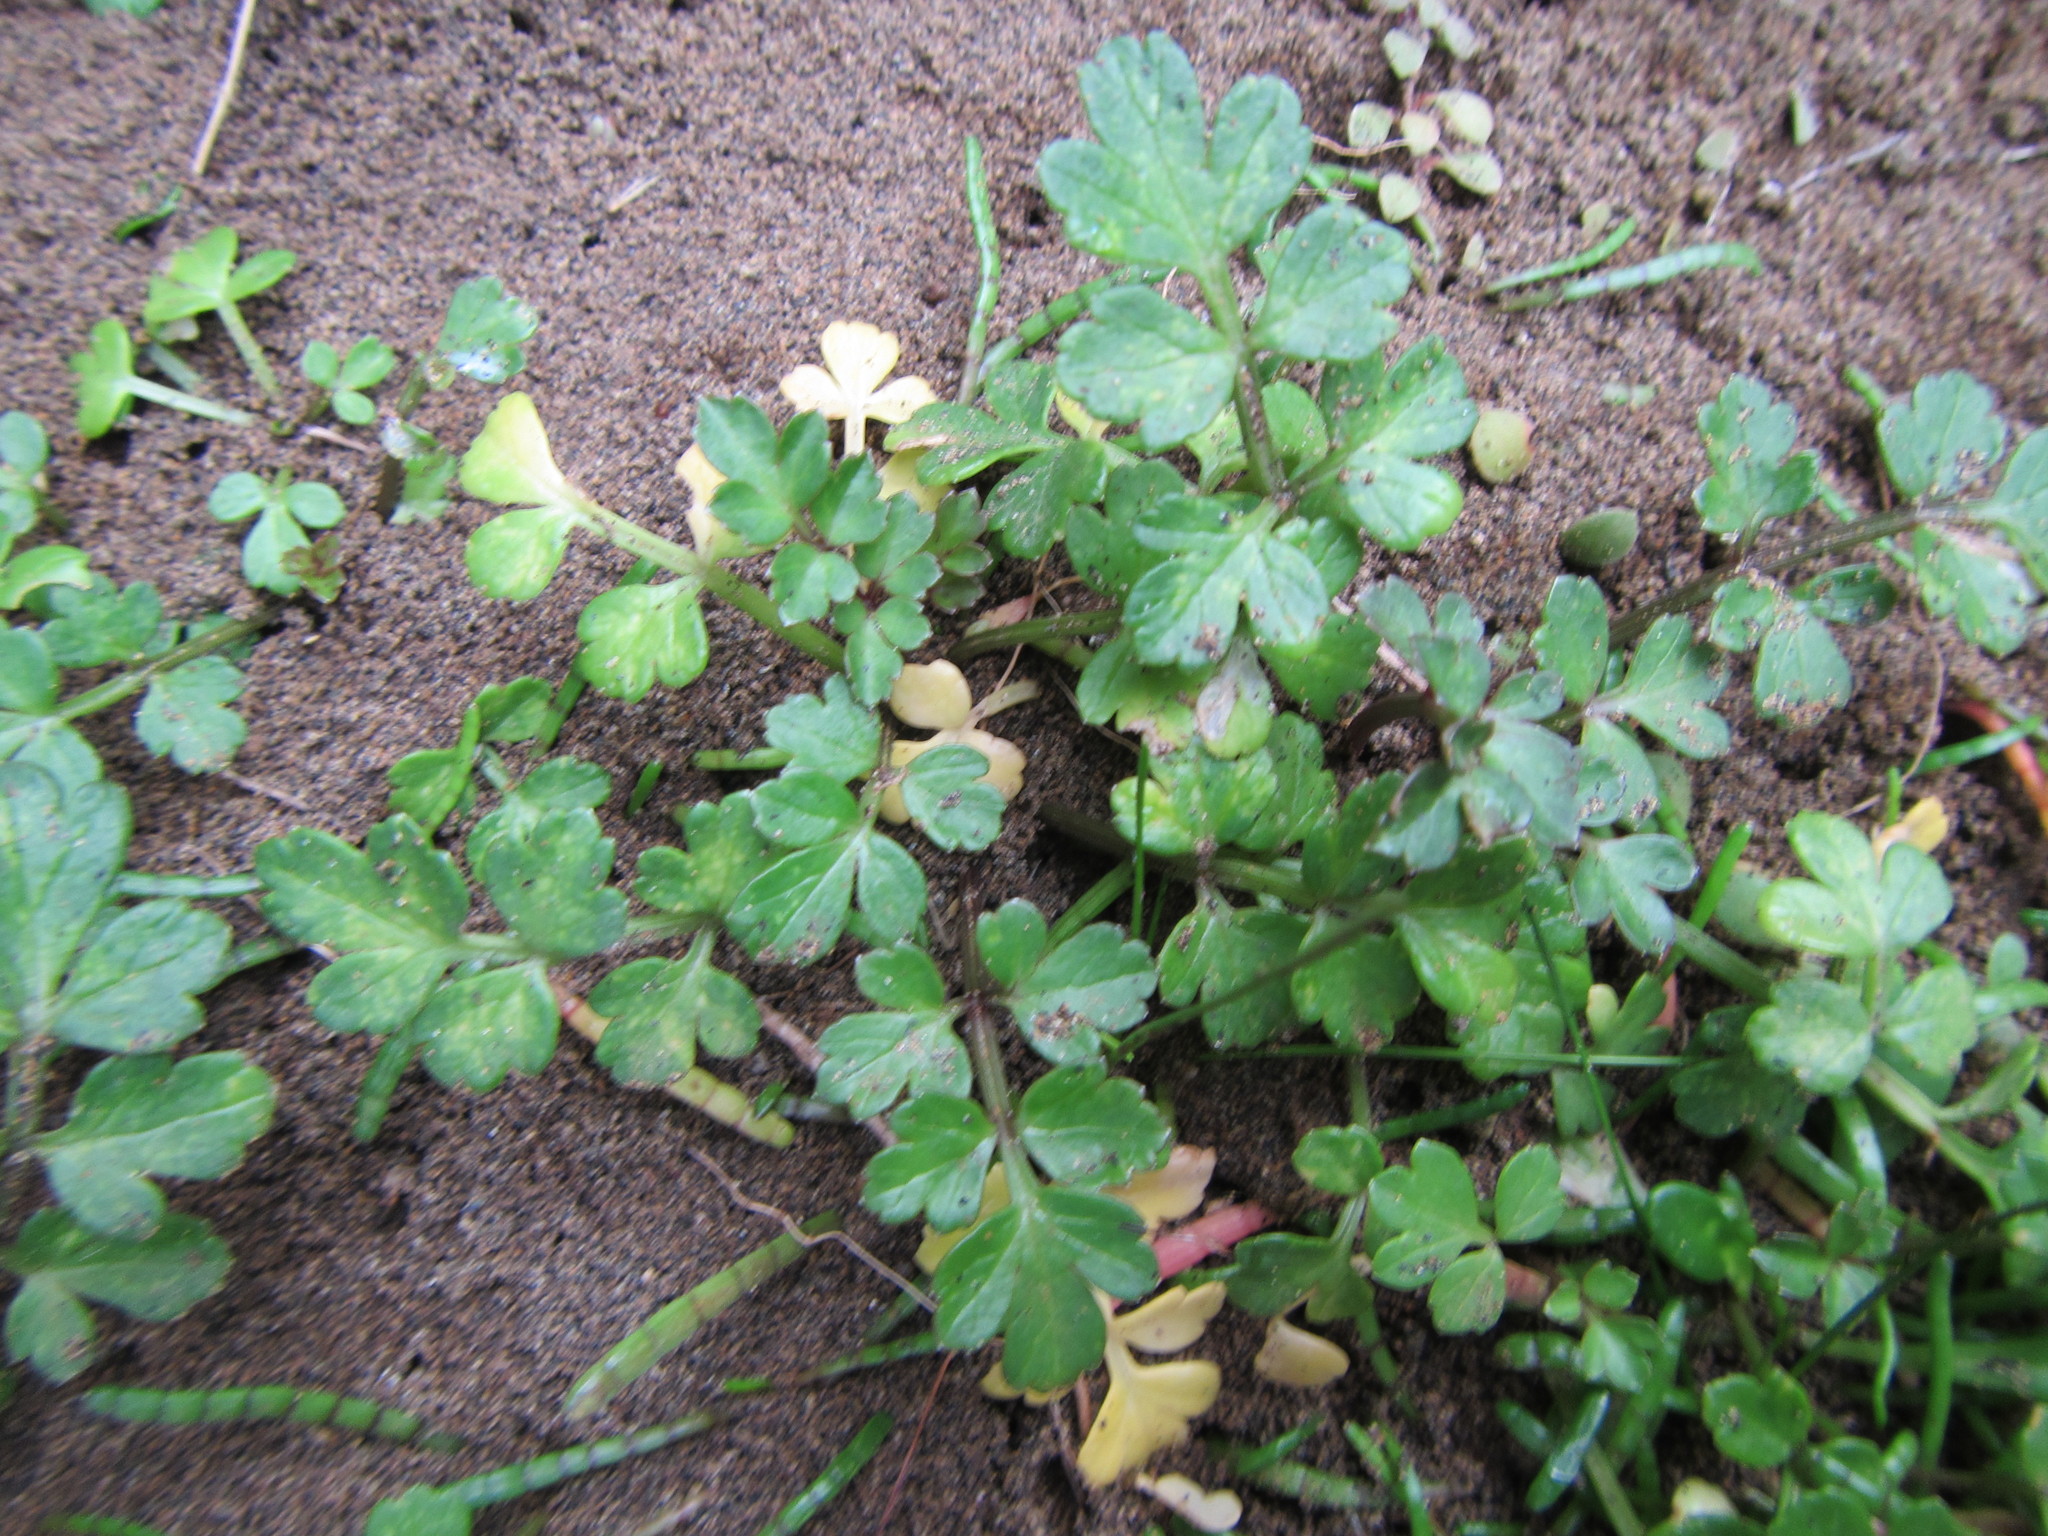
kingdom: Plantae
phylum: Tracheophyta
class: Magnoliopsida
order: Apiales
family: Apiaceae
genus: Apium
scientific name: Apium prostratum
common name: Prostrate marshwort
